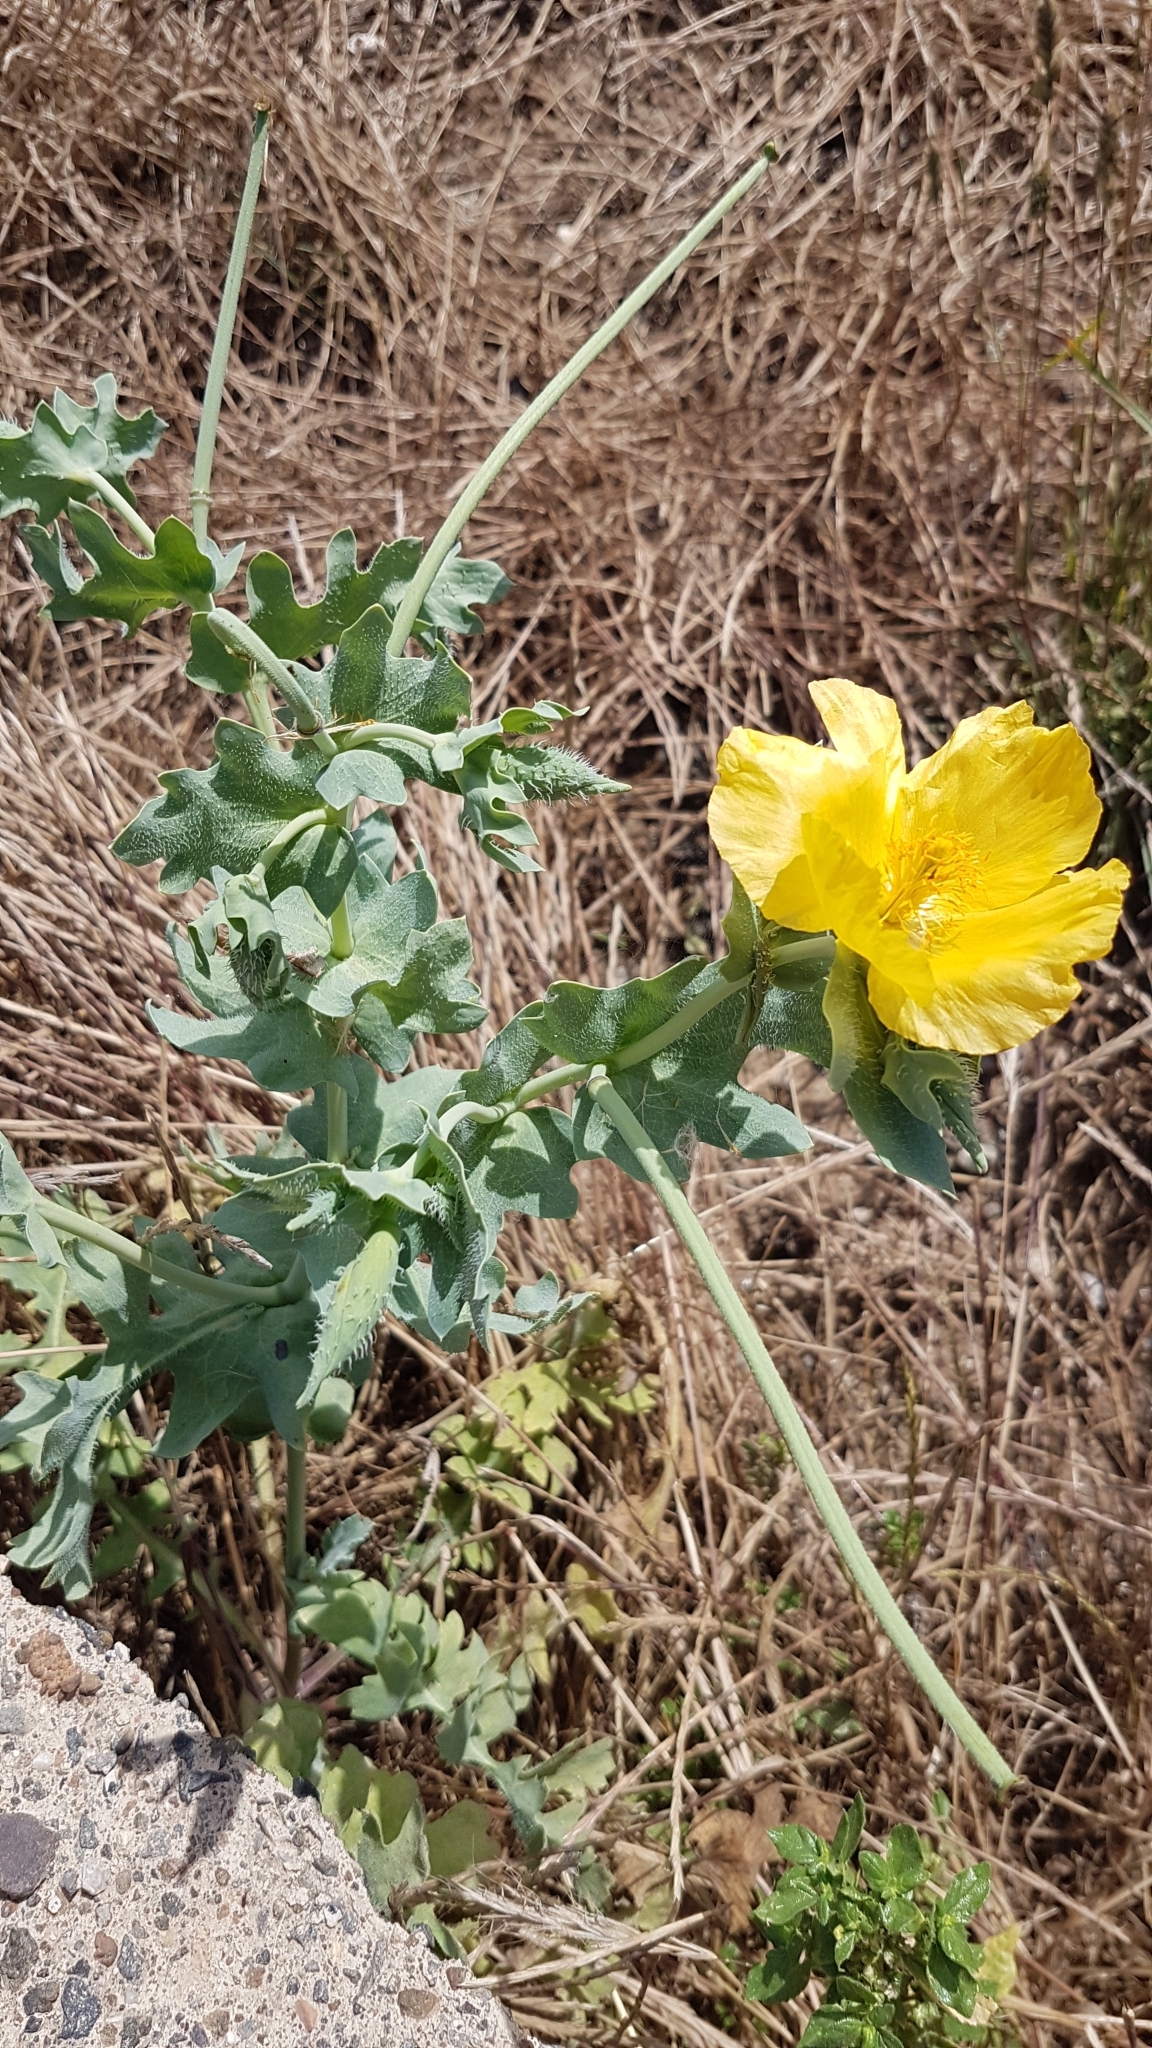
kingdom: Plantae
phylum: Tracheophyta
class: Magnoliopsida
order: Ranunculales
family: Papaveraceae
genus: Glaucium
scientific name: Glaucium flavum
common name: Yellow horned-poppy
